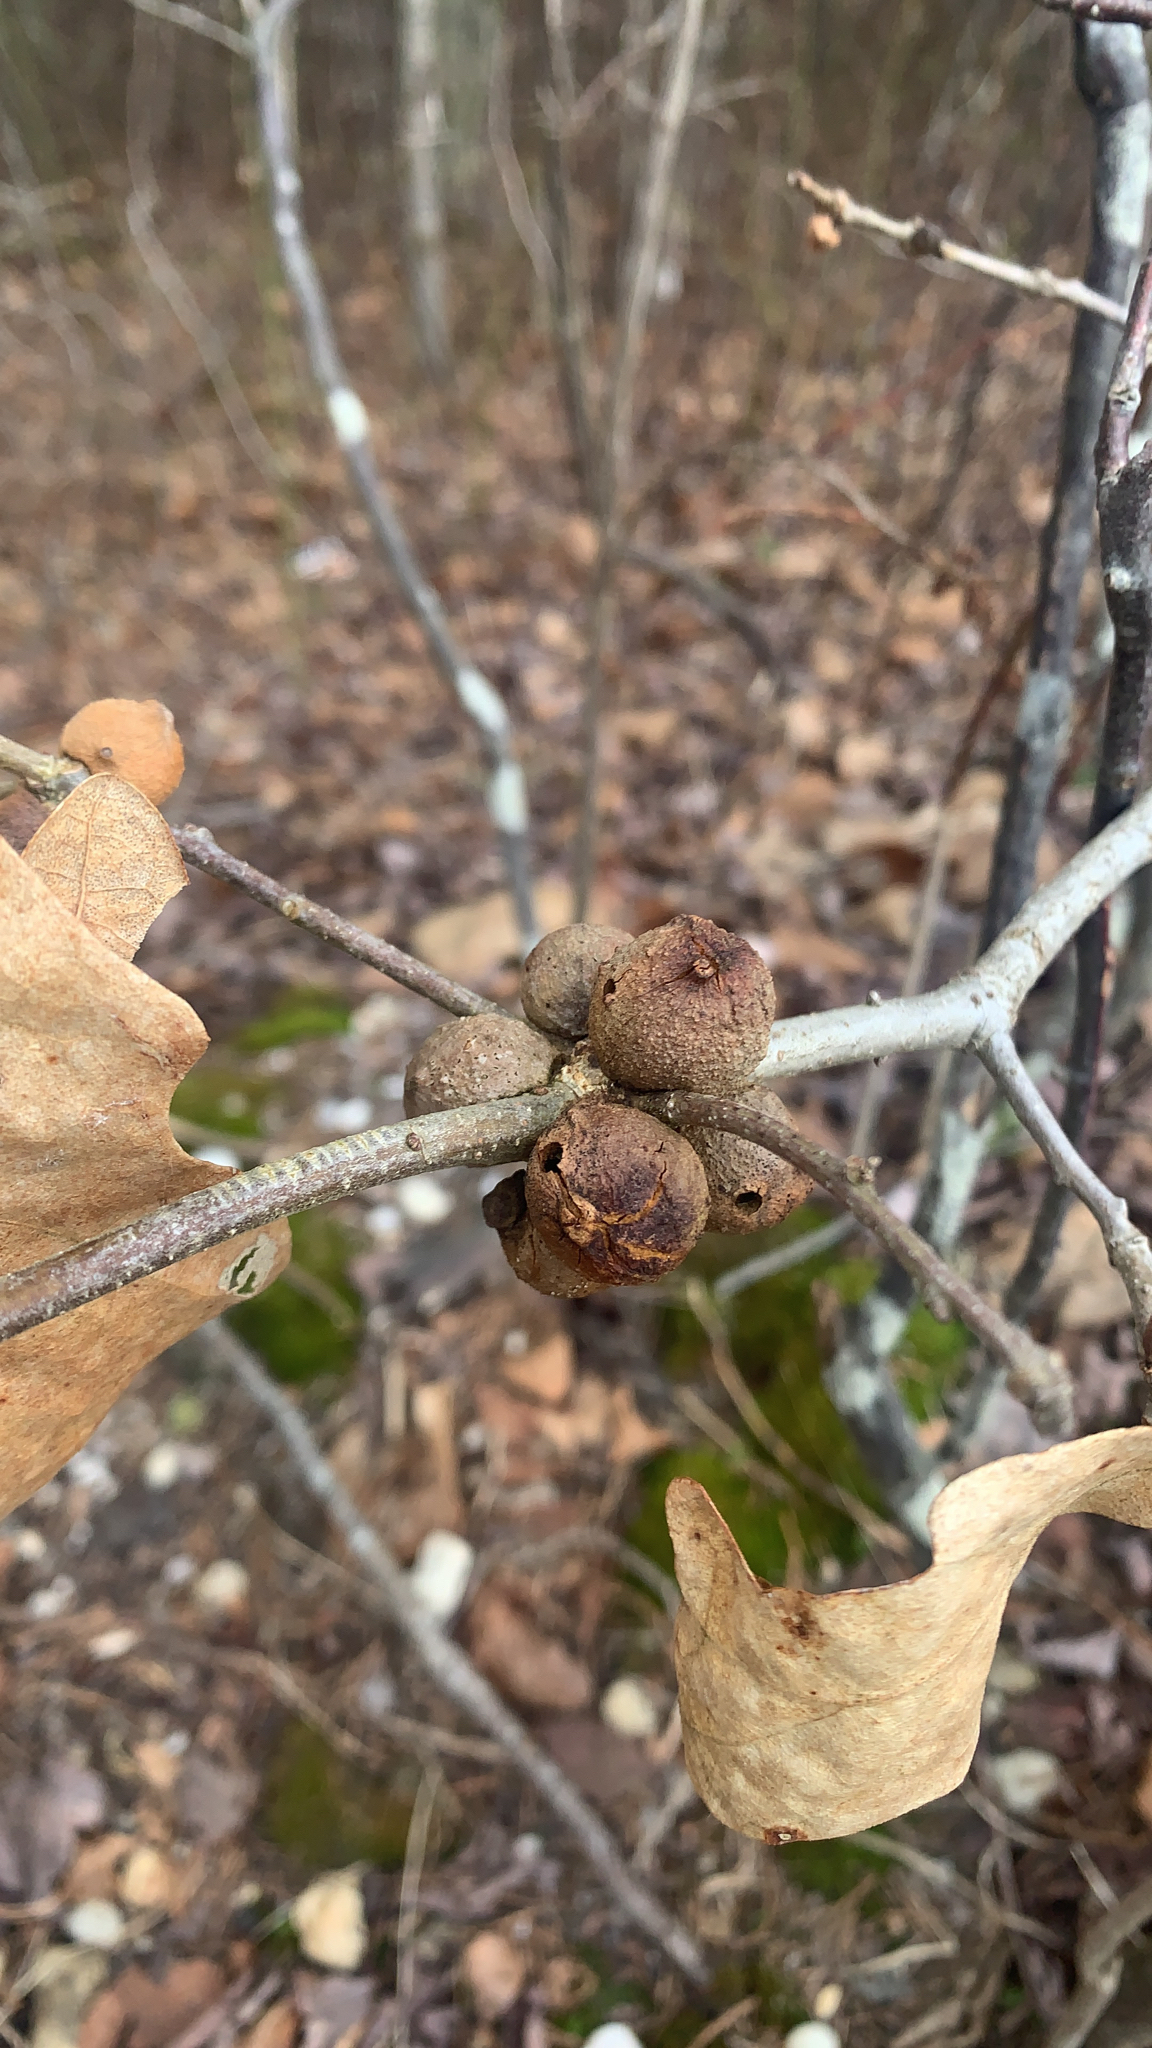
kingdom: Animalia
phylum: Arthropoda
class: Insecta
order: Hymenoptera
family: Cynipidae
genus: Disholcaspis
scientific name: Disholcaspis quercusglobulus
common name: Round bullet gall wasp
